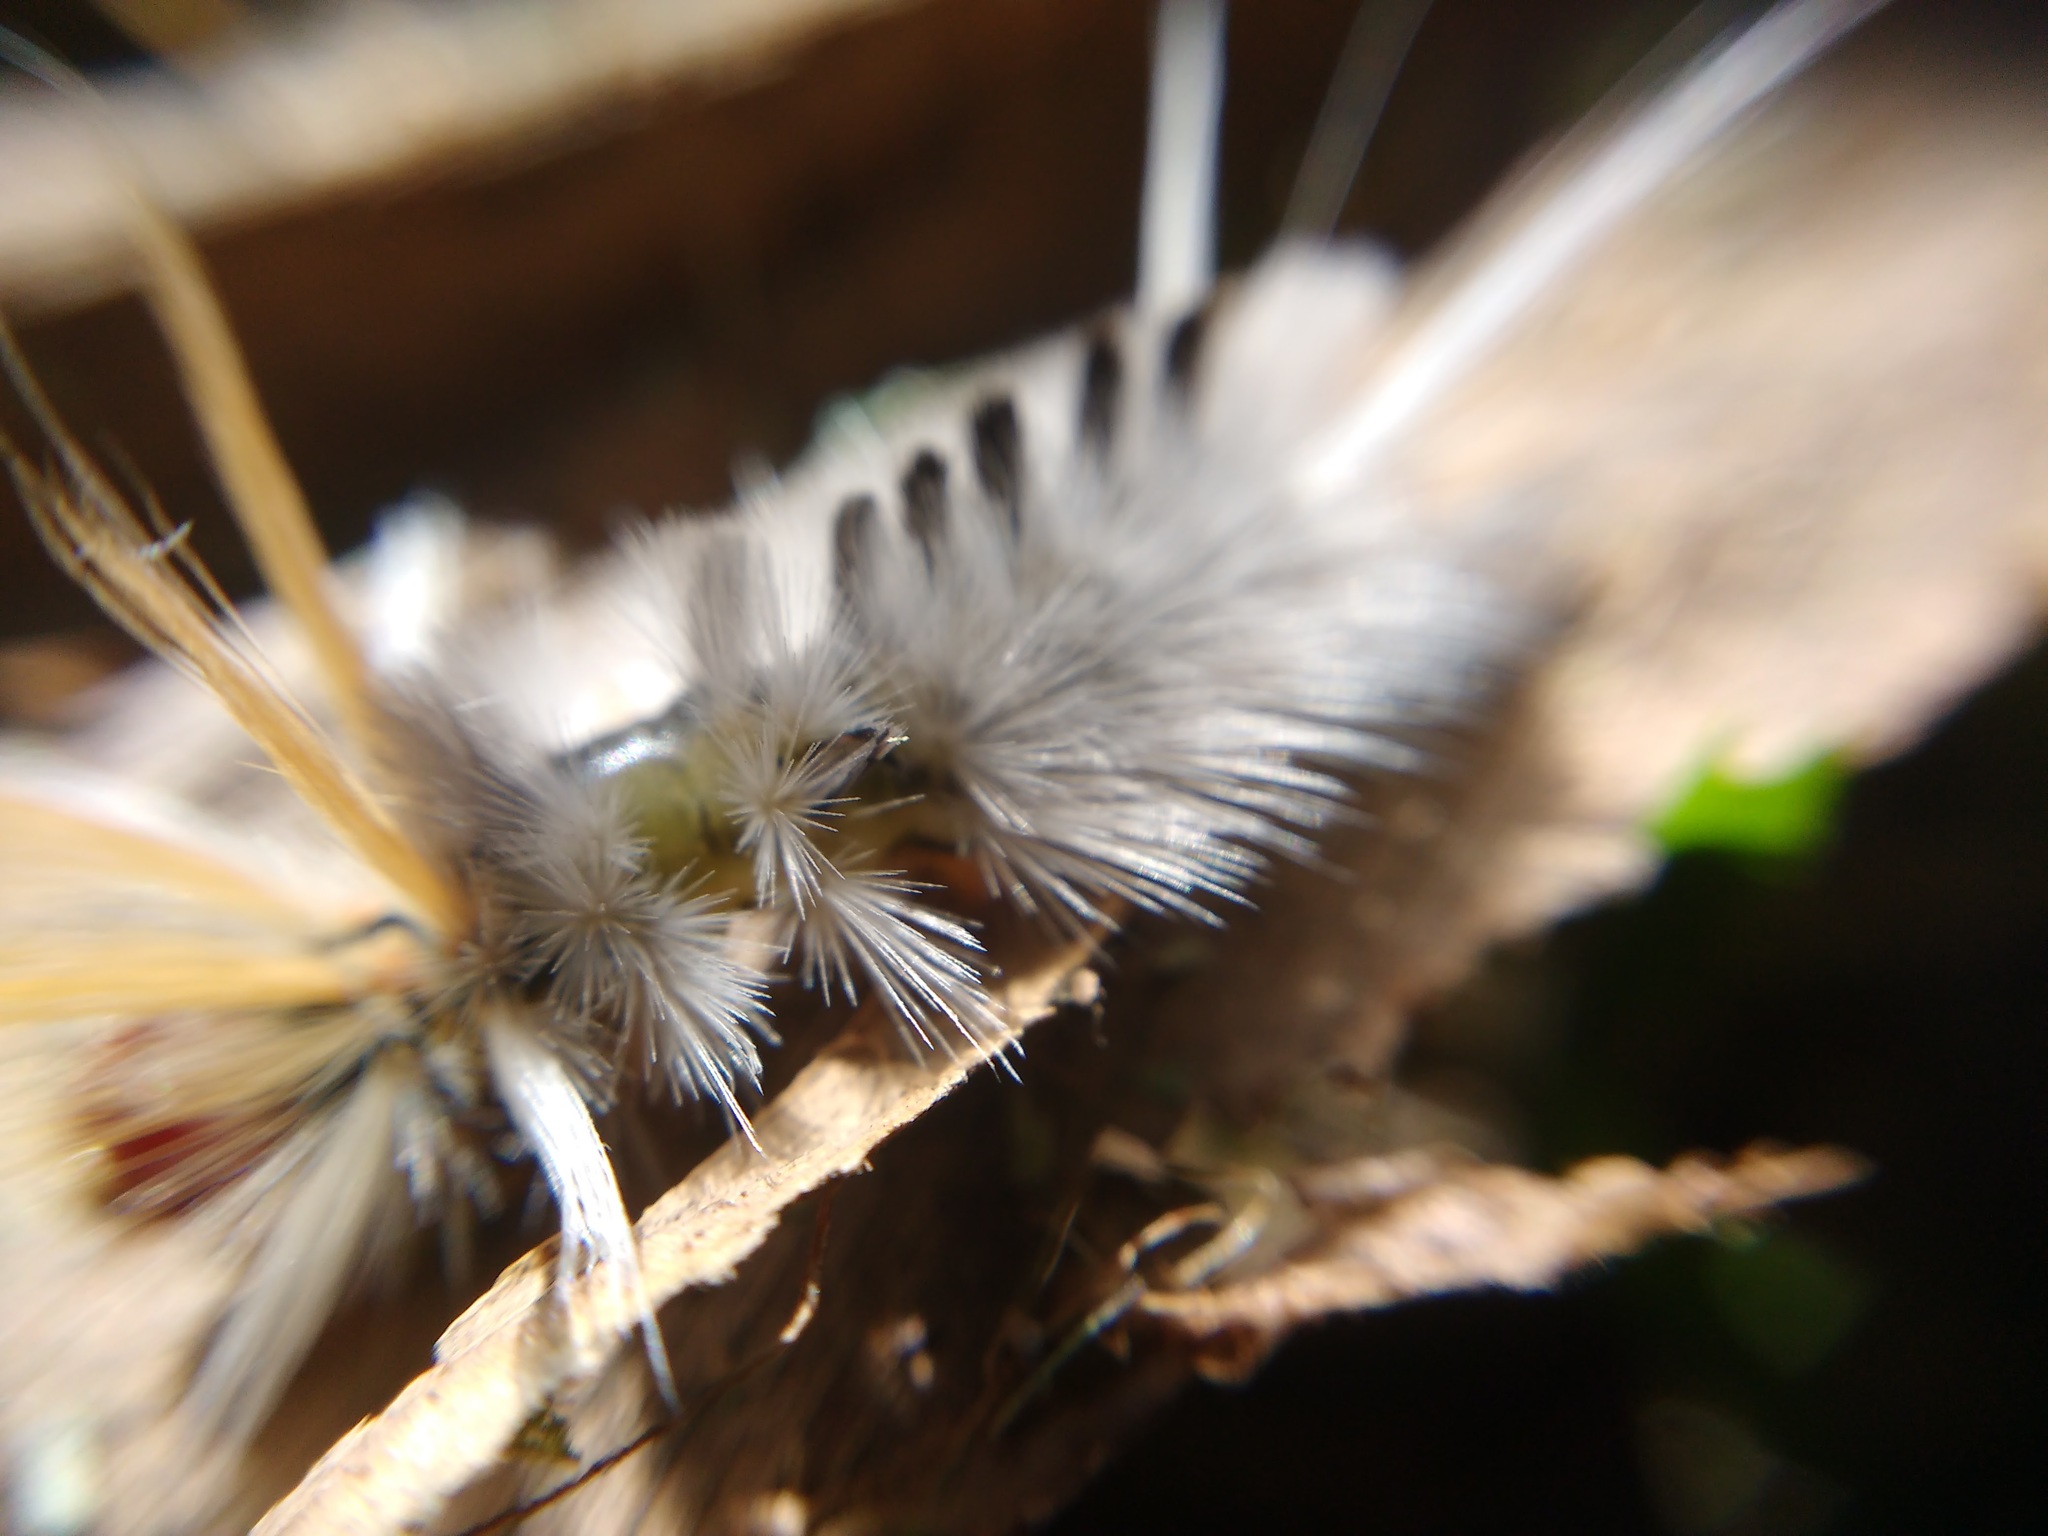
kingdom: Animalia
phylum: Arthropoda
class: Insecta
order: Lepidoptera
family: Erebidae
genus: Halysidota
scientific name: Halysidota ruscheweyhi
